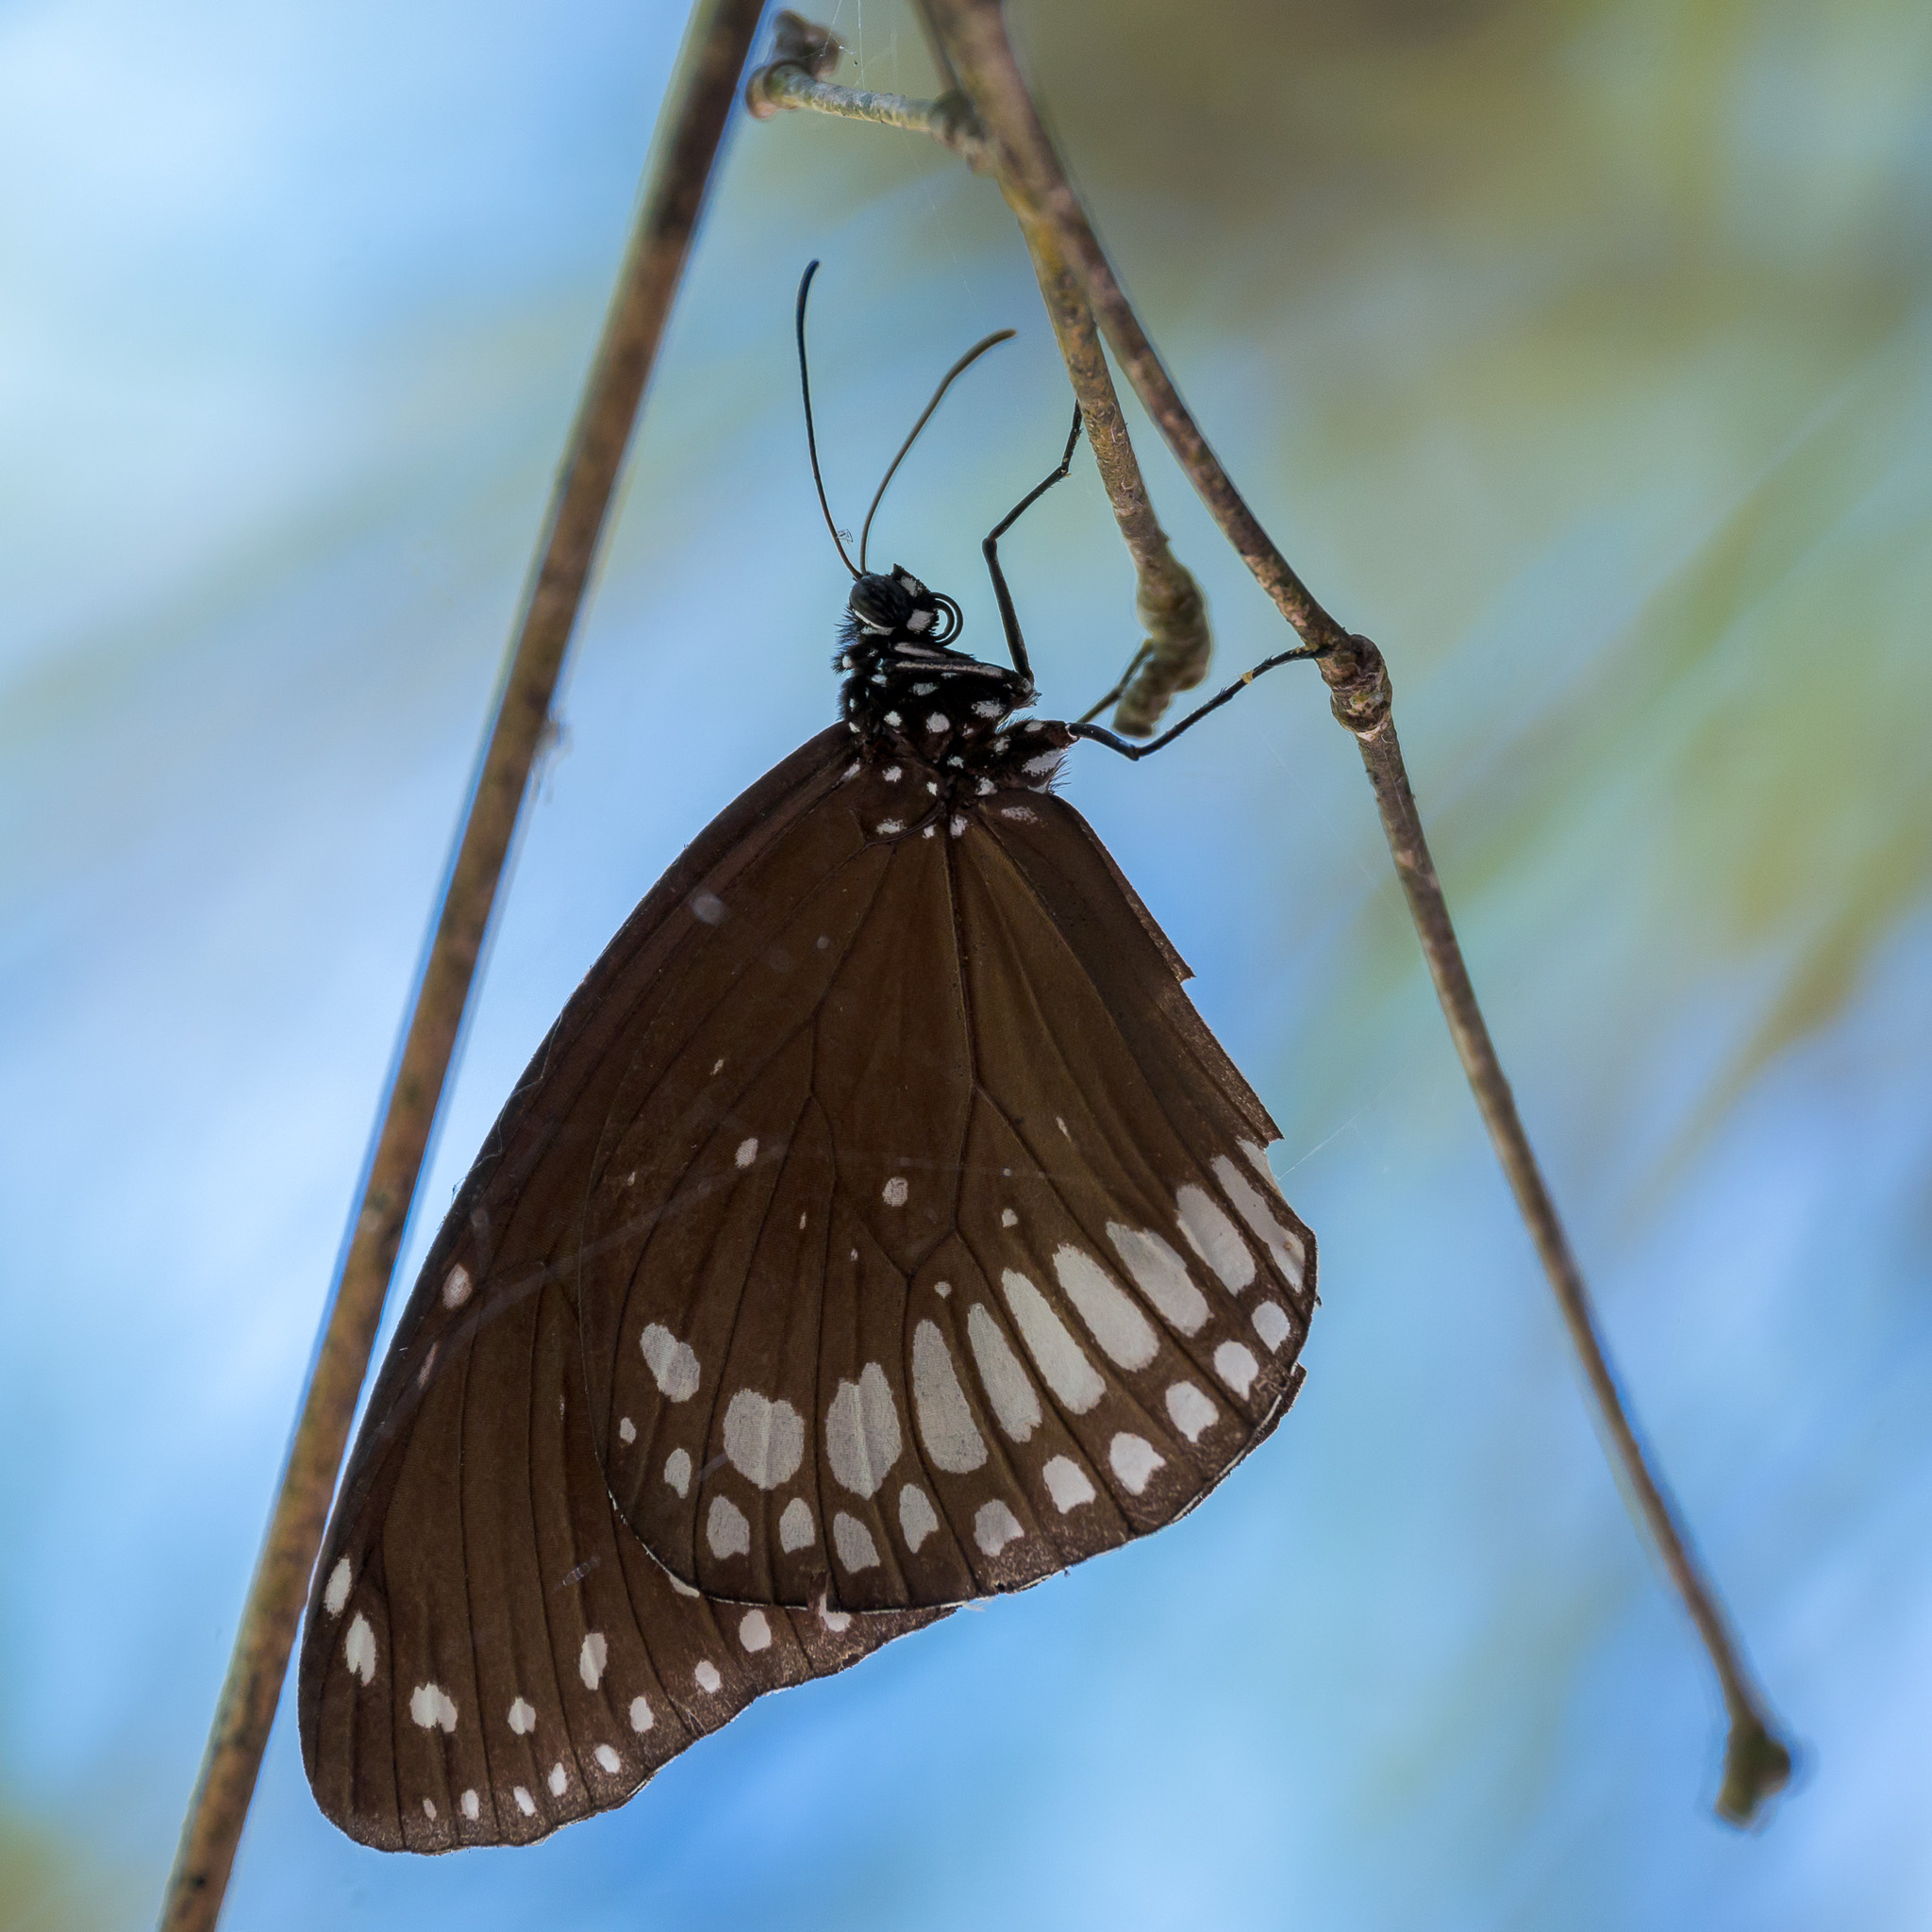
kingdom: Animalia
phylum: Arthropoda
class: Insecta
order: Lepidoptera
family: Nymphalidae
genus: Euploea
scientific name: Euploea core
